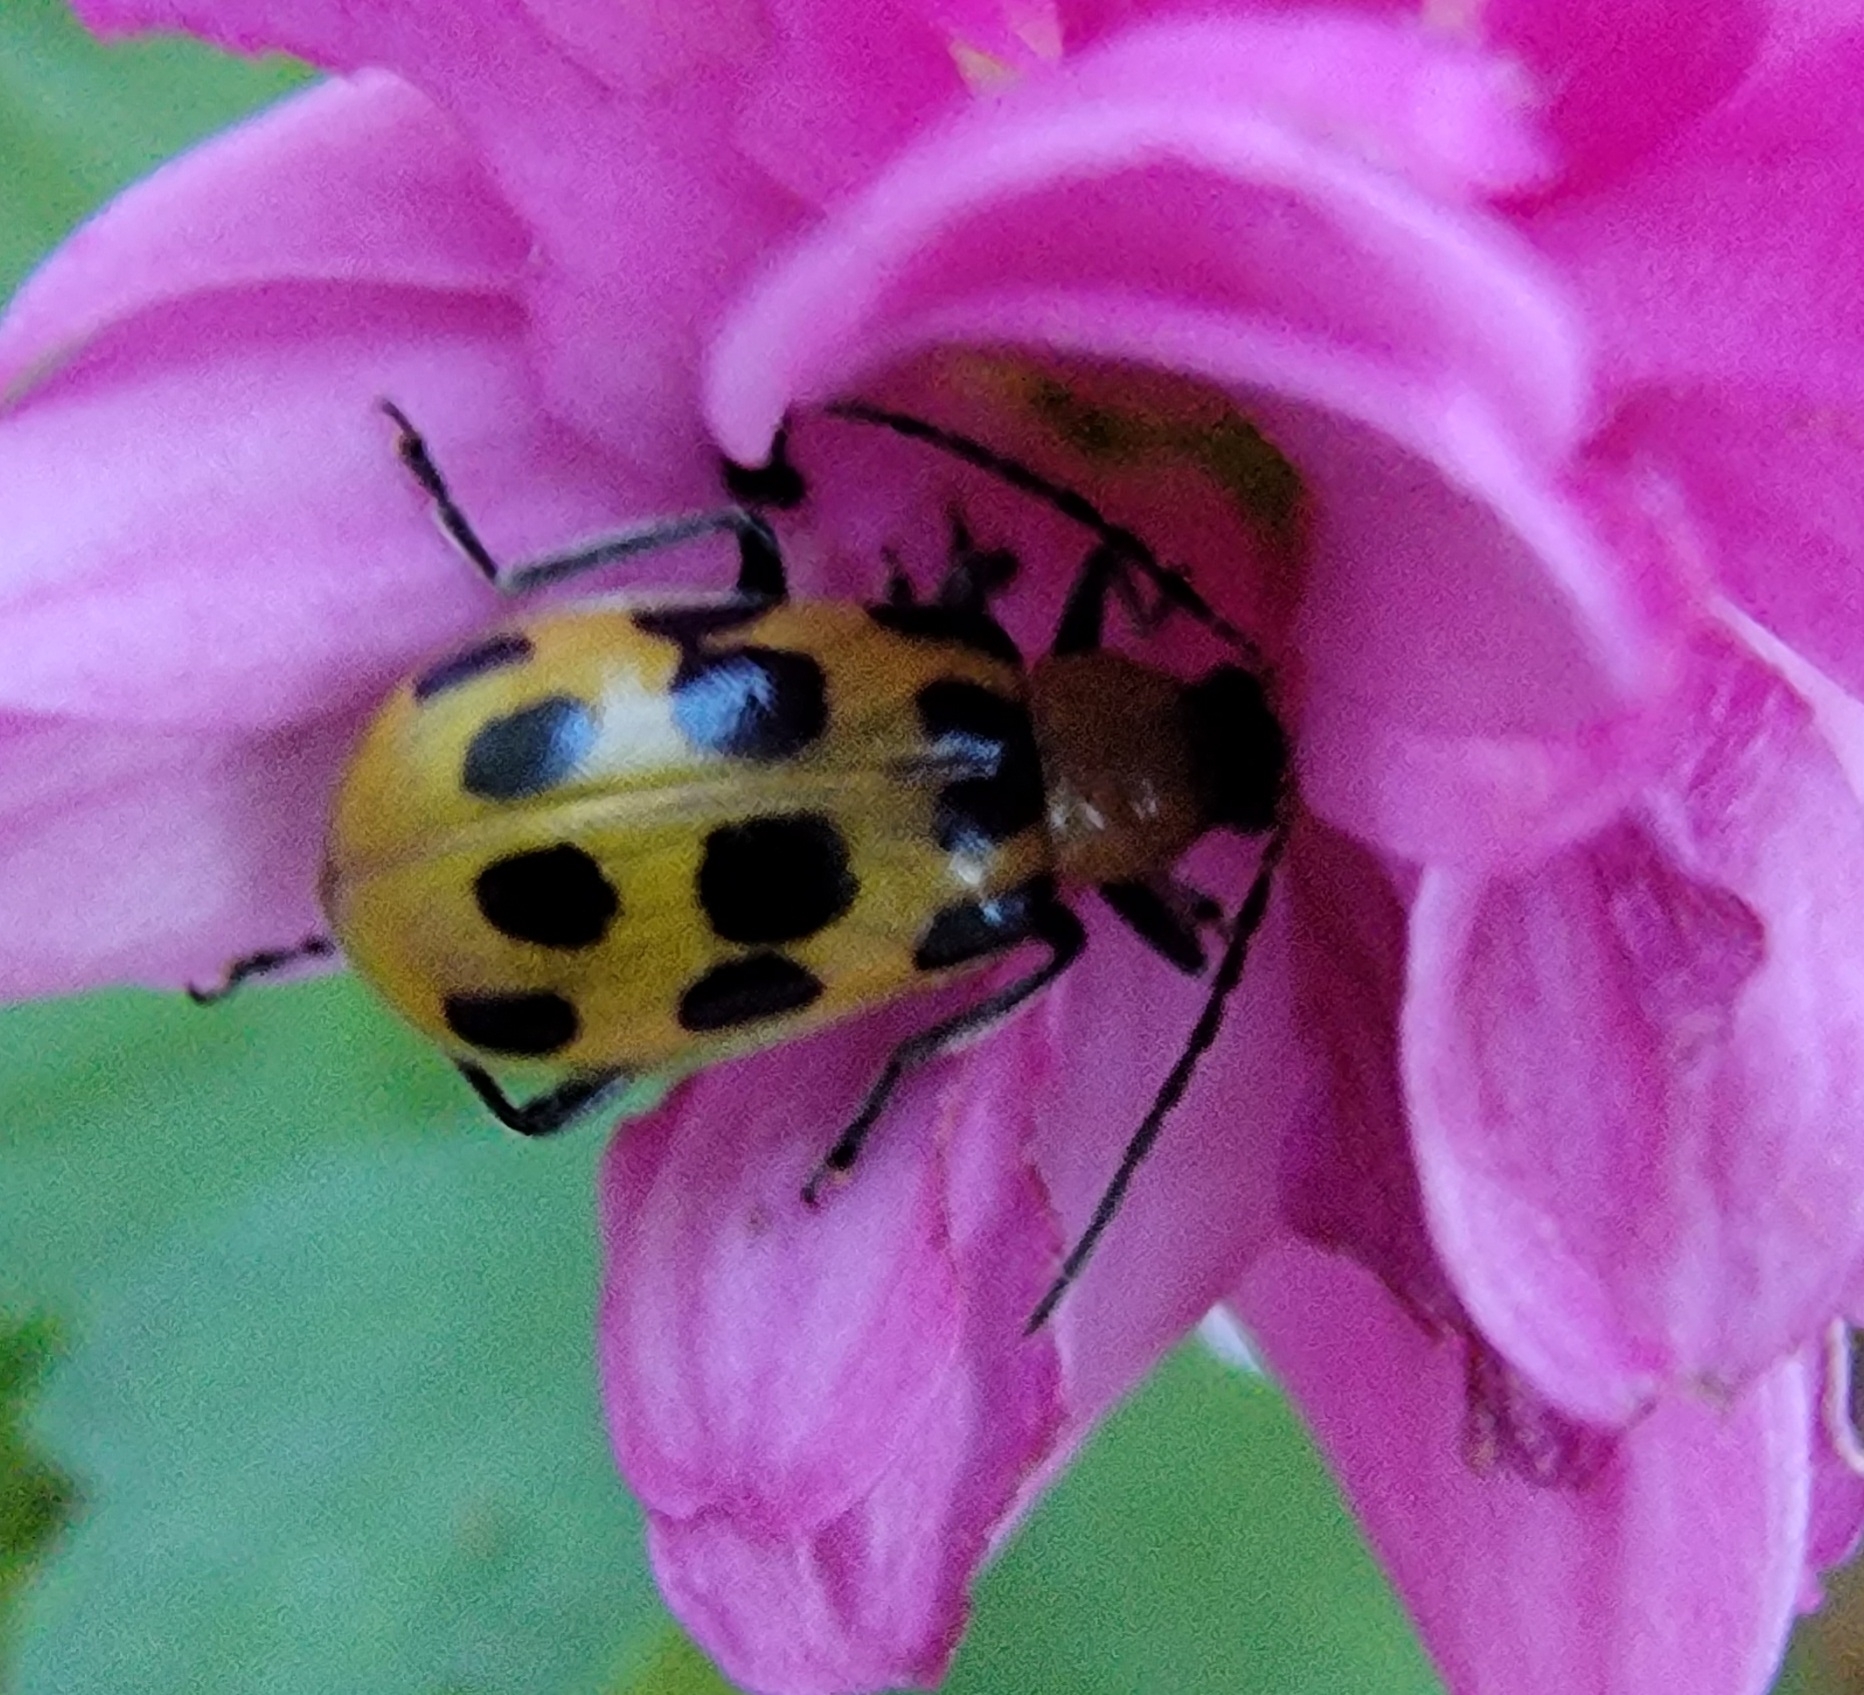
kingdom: Animalia
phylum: Arthropoda
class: Insecta
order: Coleoptera
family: Chrysomelidae
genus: Diabrotica
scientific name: Diabrotica undecimpunctata
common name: Spotted cucumber beetle
